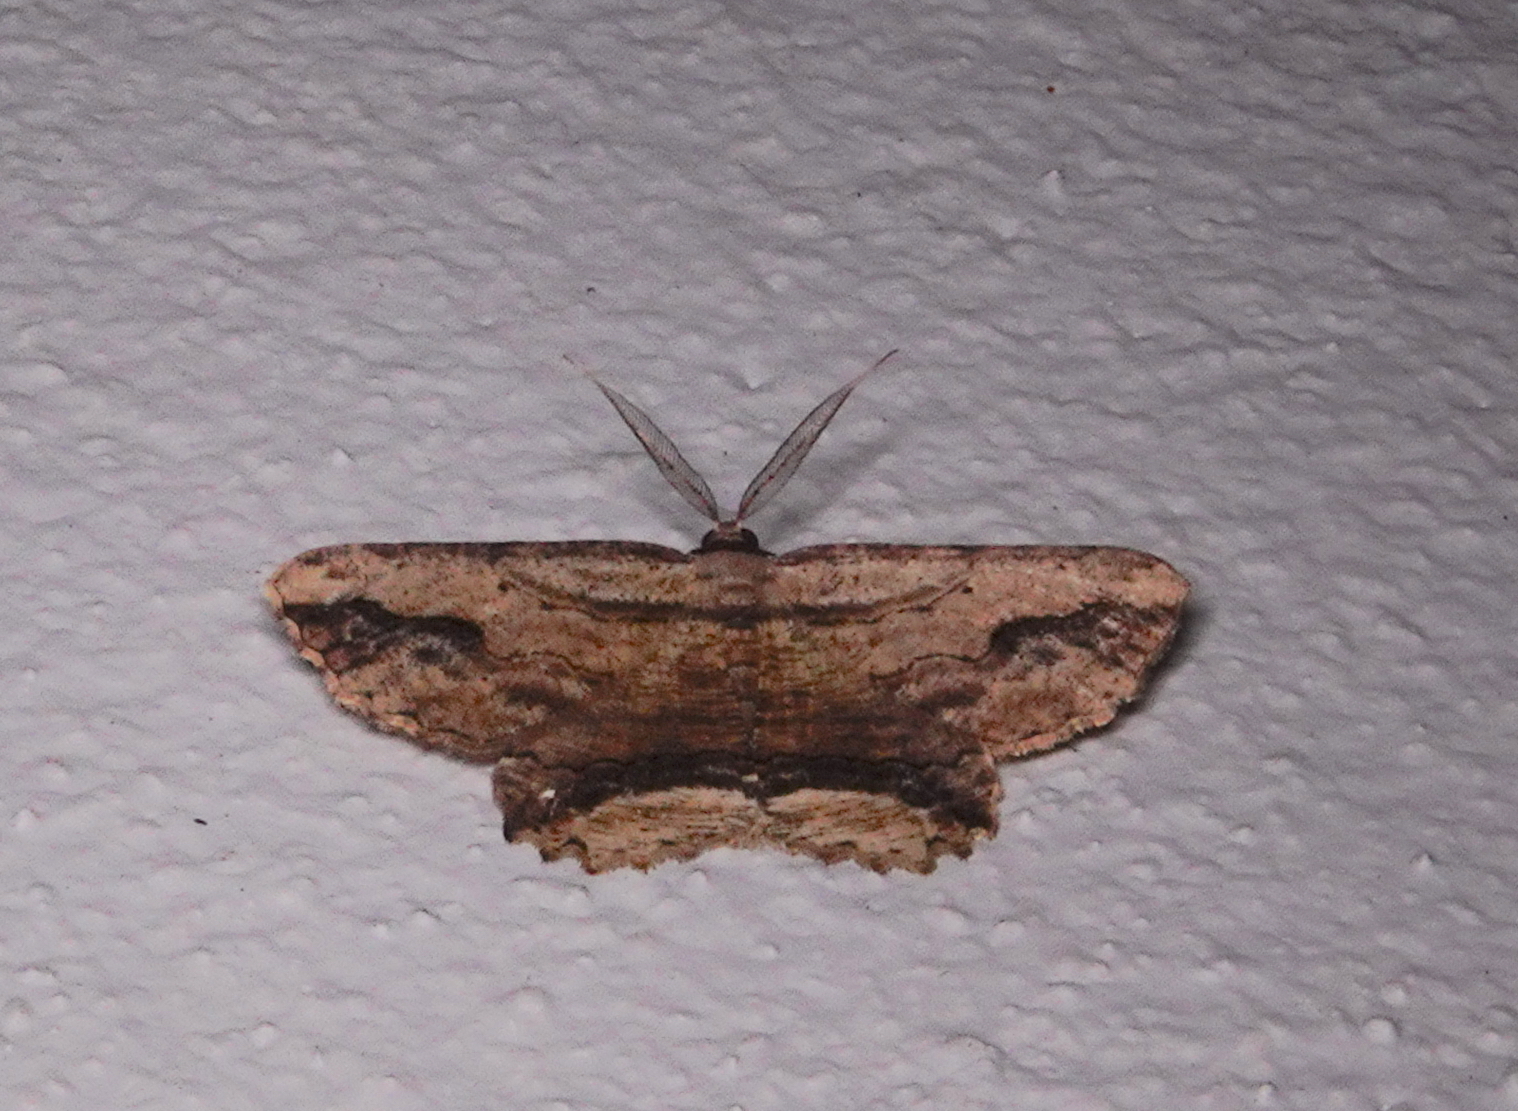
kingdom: Animalia
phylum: Arthropoda
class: Insecta
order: Lepidoptera
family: Geometridae
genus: Menophra
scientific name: Menophra abruptaria
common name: Waved umber
